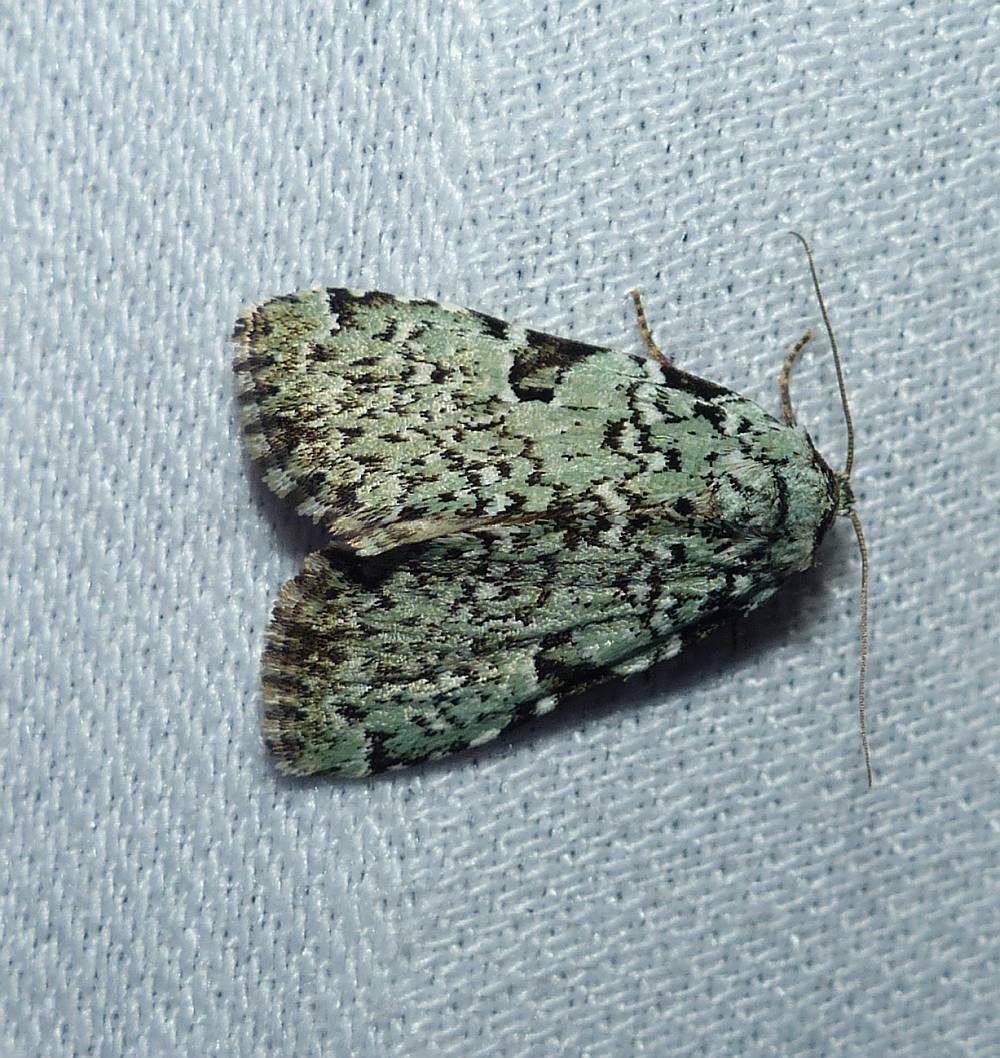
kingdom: Animalia
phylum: Arthropoda
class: Insecta
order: Lepidoptera
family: Noctuidae
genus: Leuconycta
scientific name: Leuconycta diphteroides
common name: Green leuconycta moth
